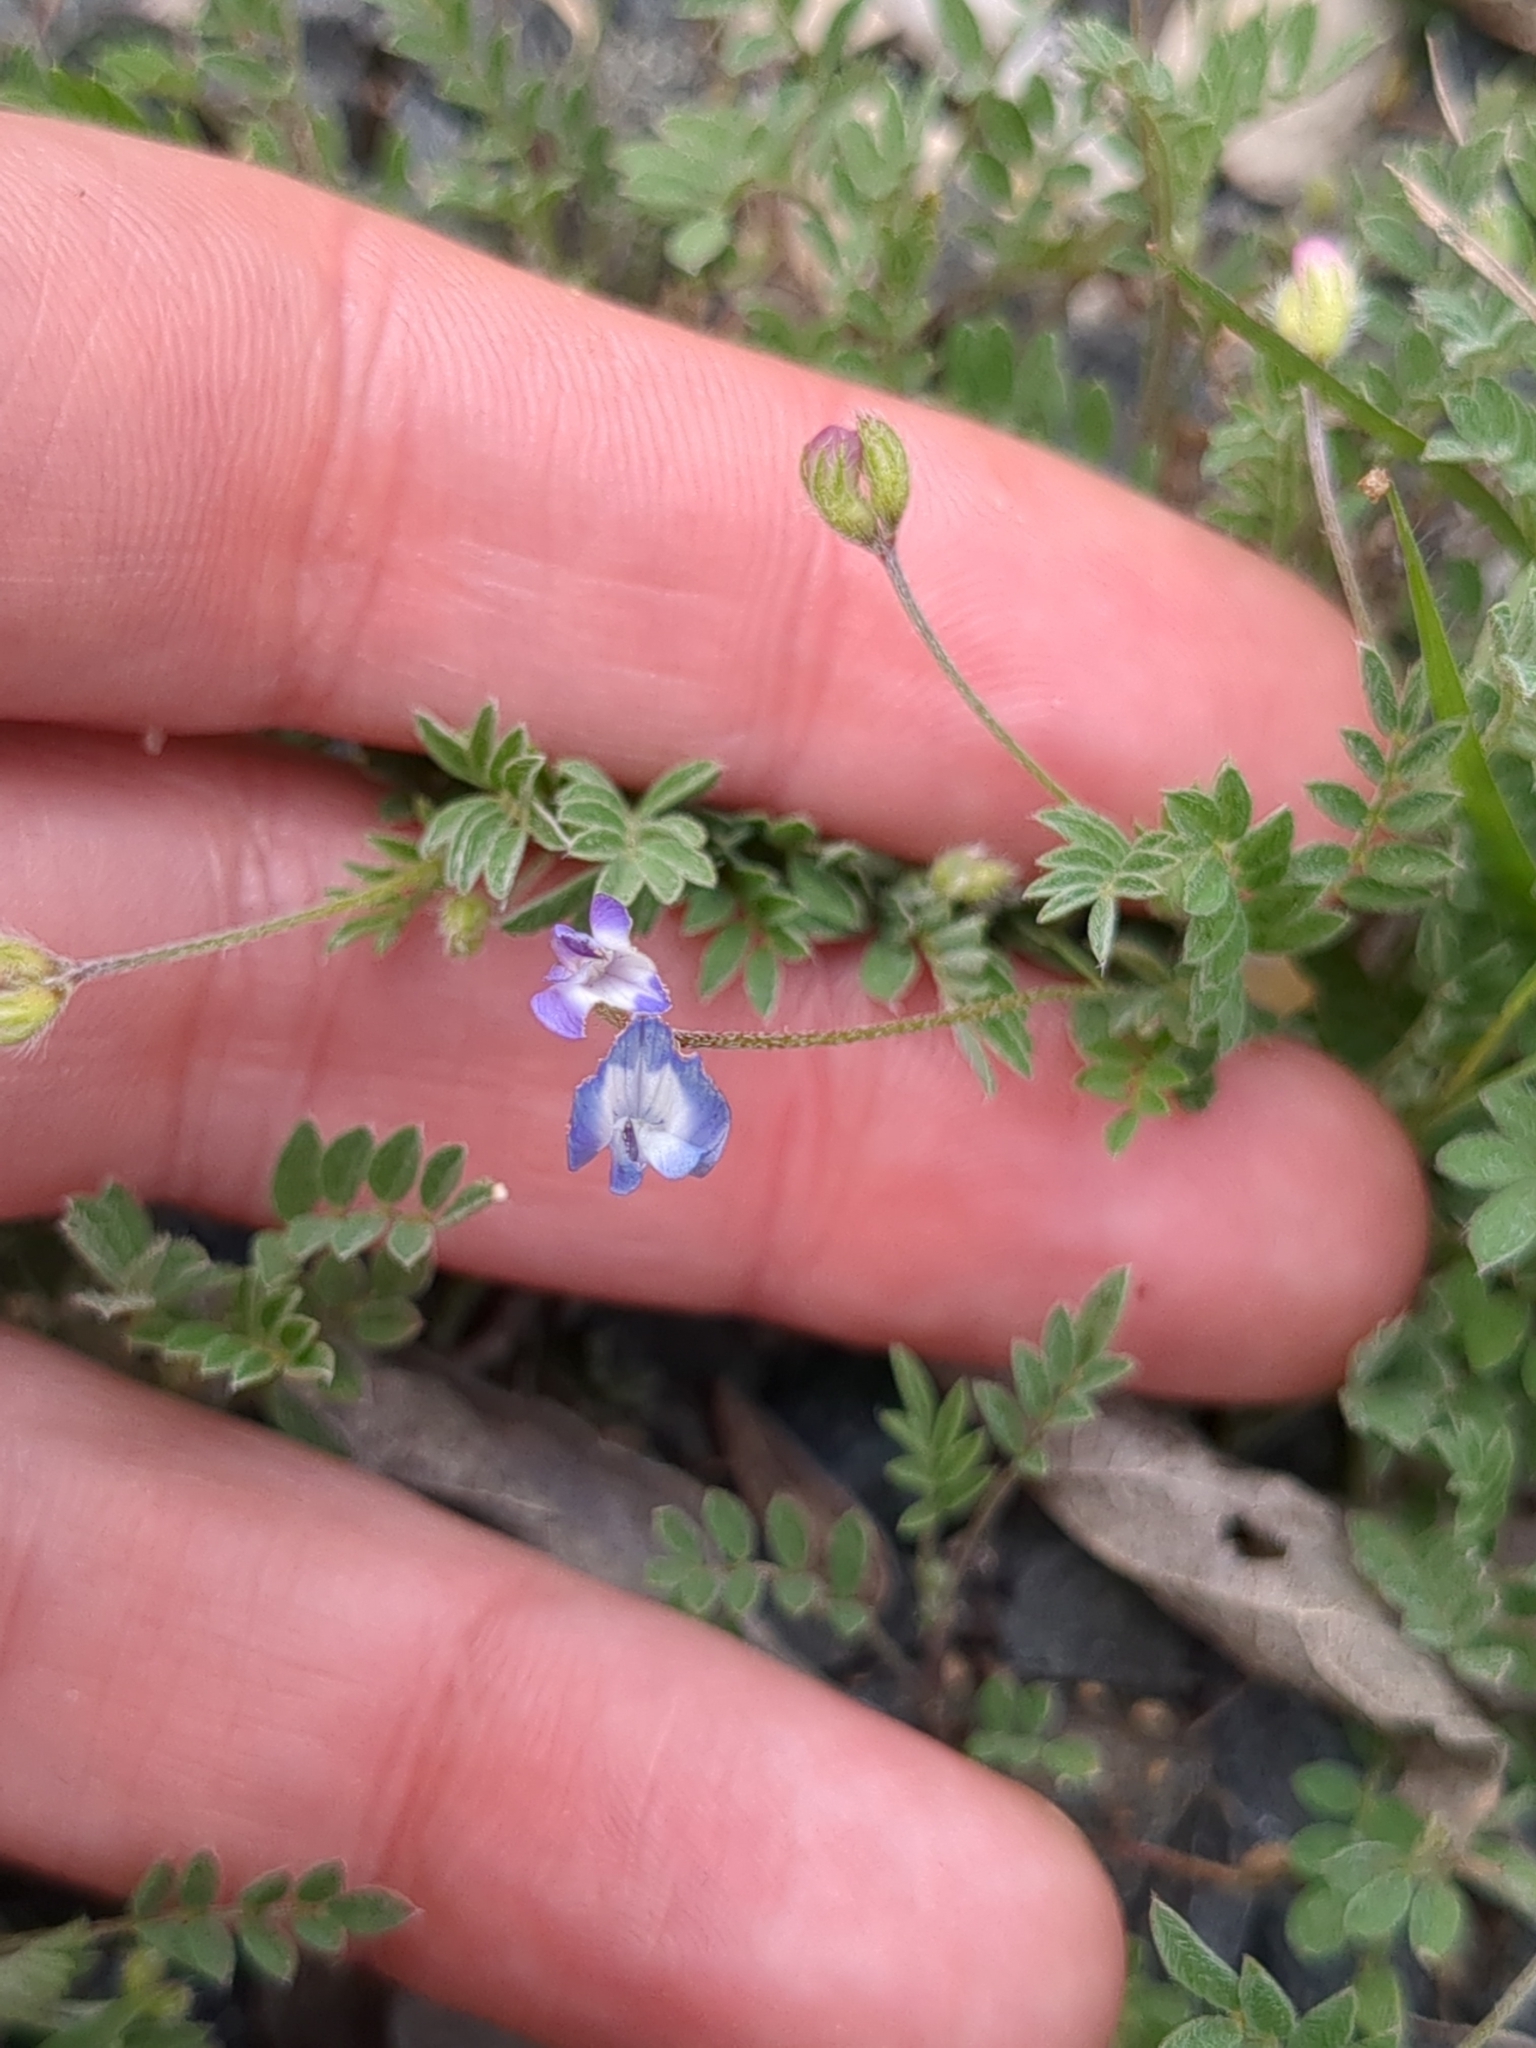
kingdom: Plantae
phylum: Tracheophyta
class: Magnoliopsida
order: Fabales
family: Fabaceae
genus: Astragalus
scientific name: Astragalus nuttallianus
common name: Smallflowered milkvetch
